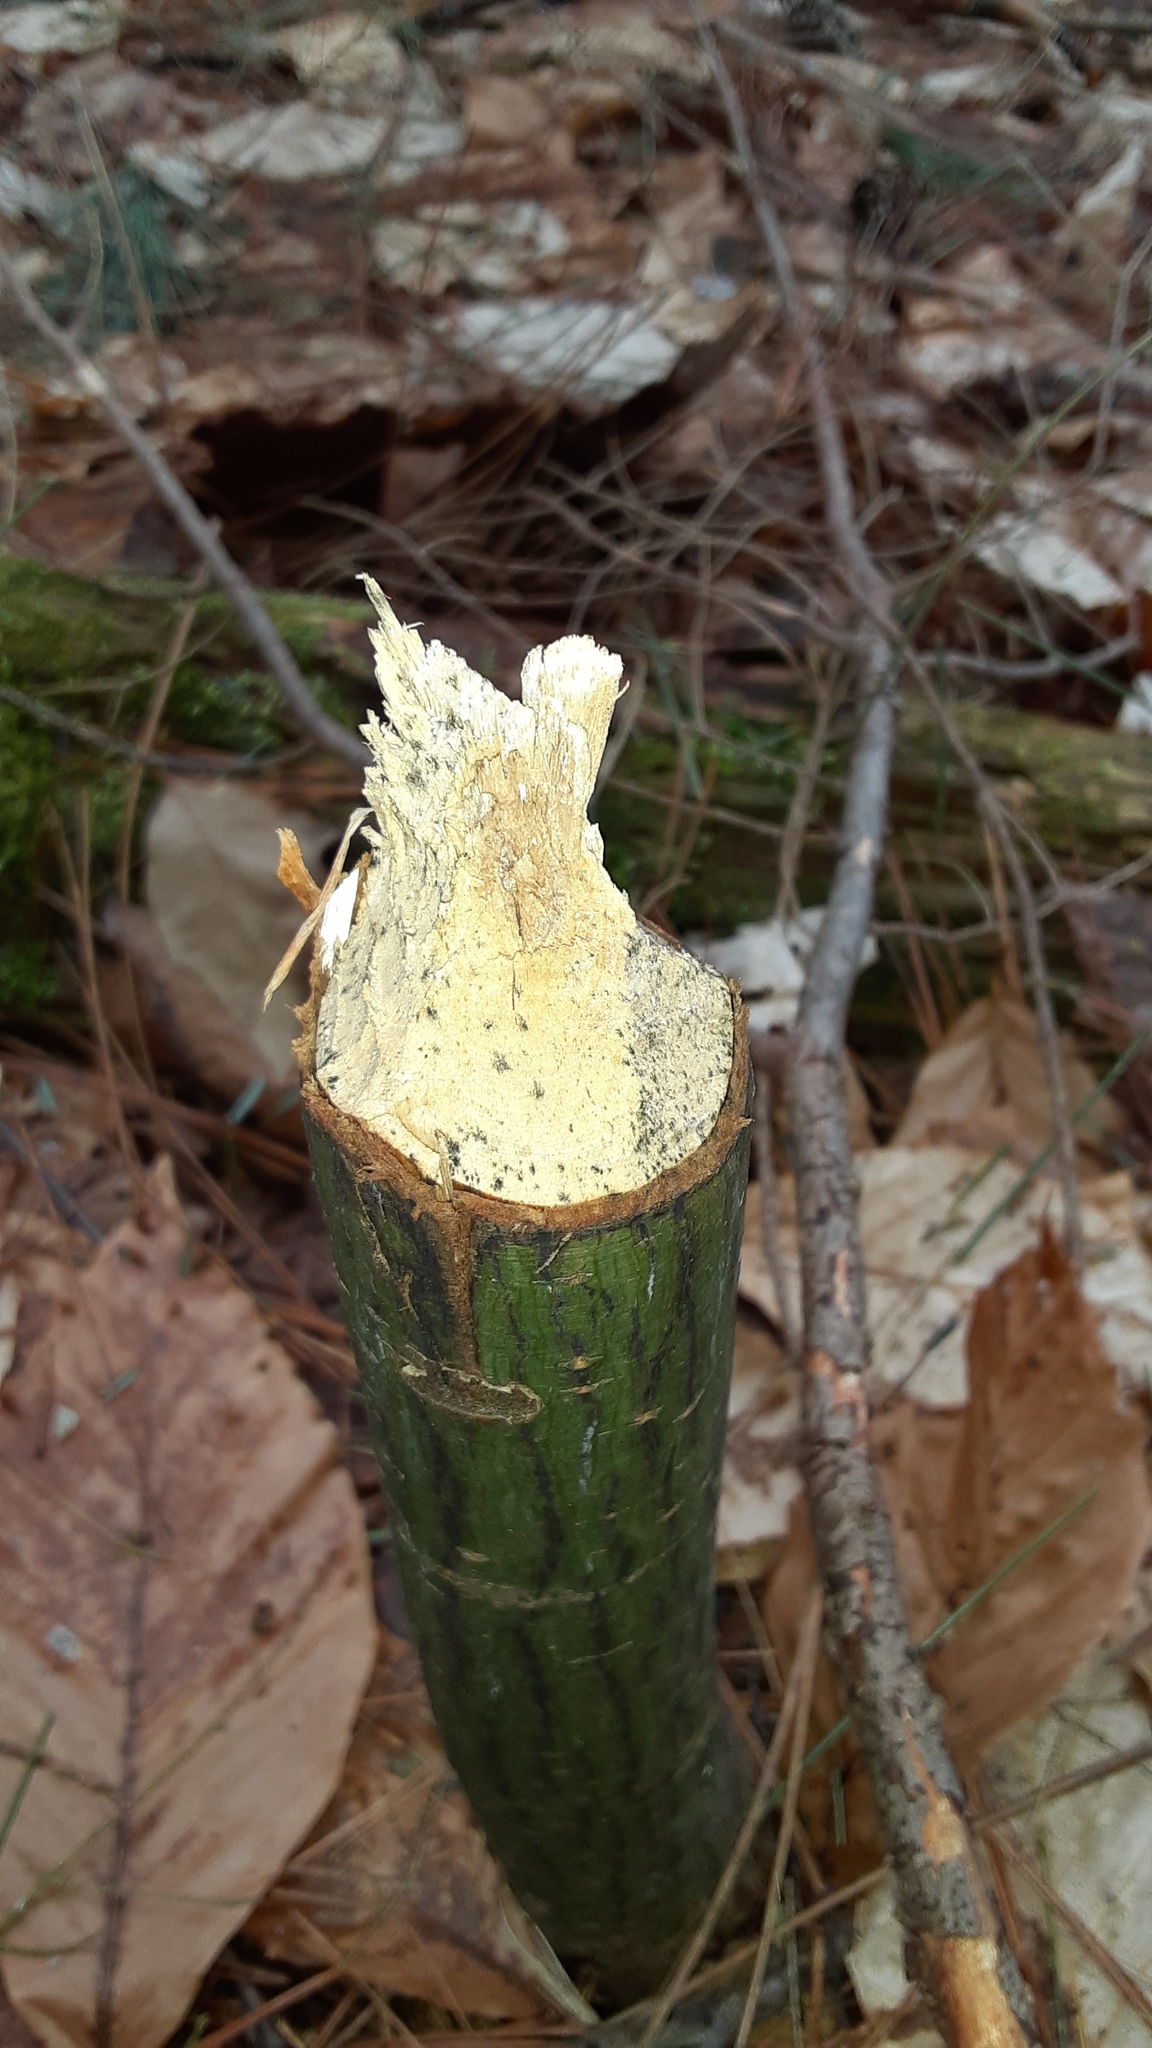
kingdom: Animalia
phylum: Chordata
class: Mammalia
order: Rodentia
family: Castoridae
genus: Castor
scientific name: Castor canadensis
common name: American beaver
